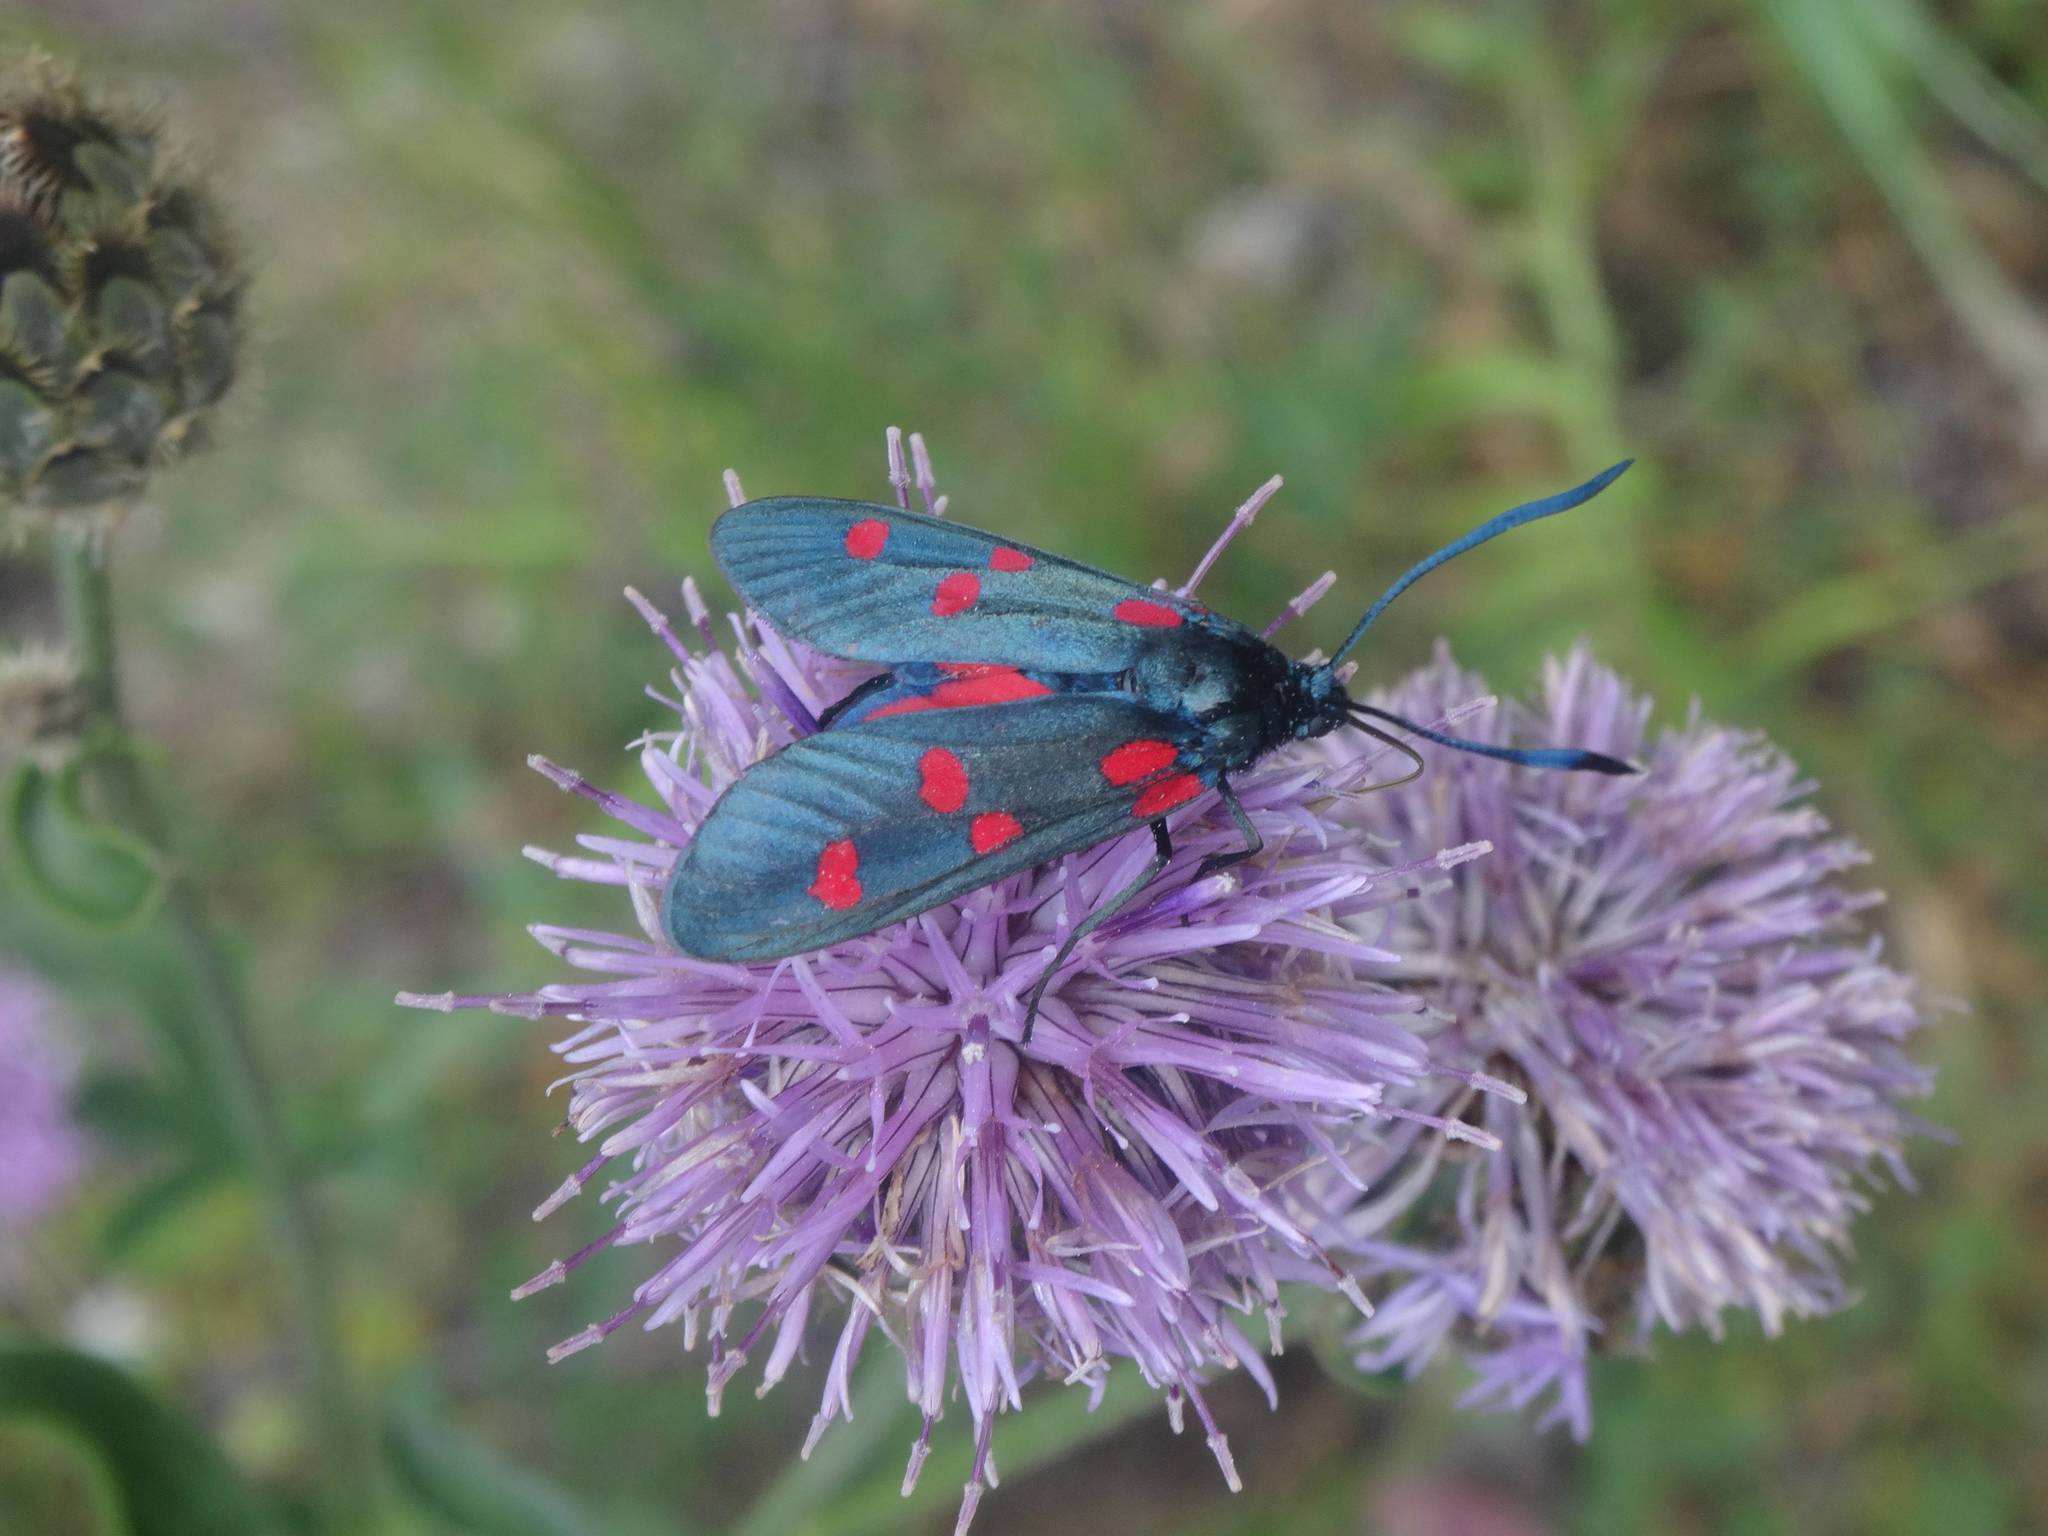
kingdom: Animalia
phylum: Arthropoda
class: Insecta
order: Lepidoptera
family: Zygaenidae
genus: Zygaena
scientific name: Zygaena lonicerae
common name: Narrow-bordered five-spot burnet
